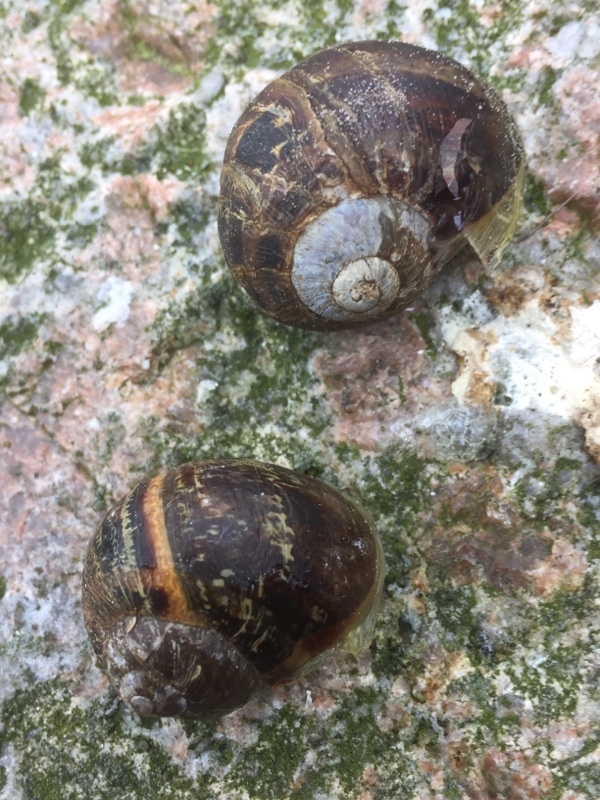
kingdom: Animalia
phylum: Mollusca
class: Gastropoda
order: Stylommatophora
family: Helicidae
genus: Cornu
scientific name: Cornu aspersum
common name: Brown garden snail
